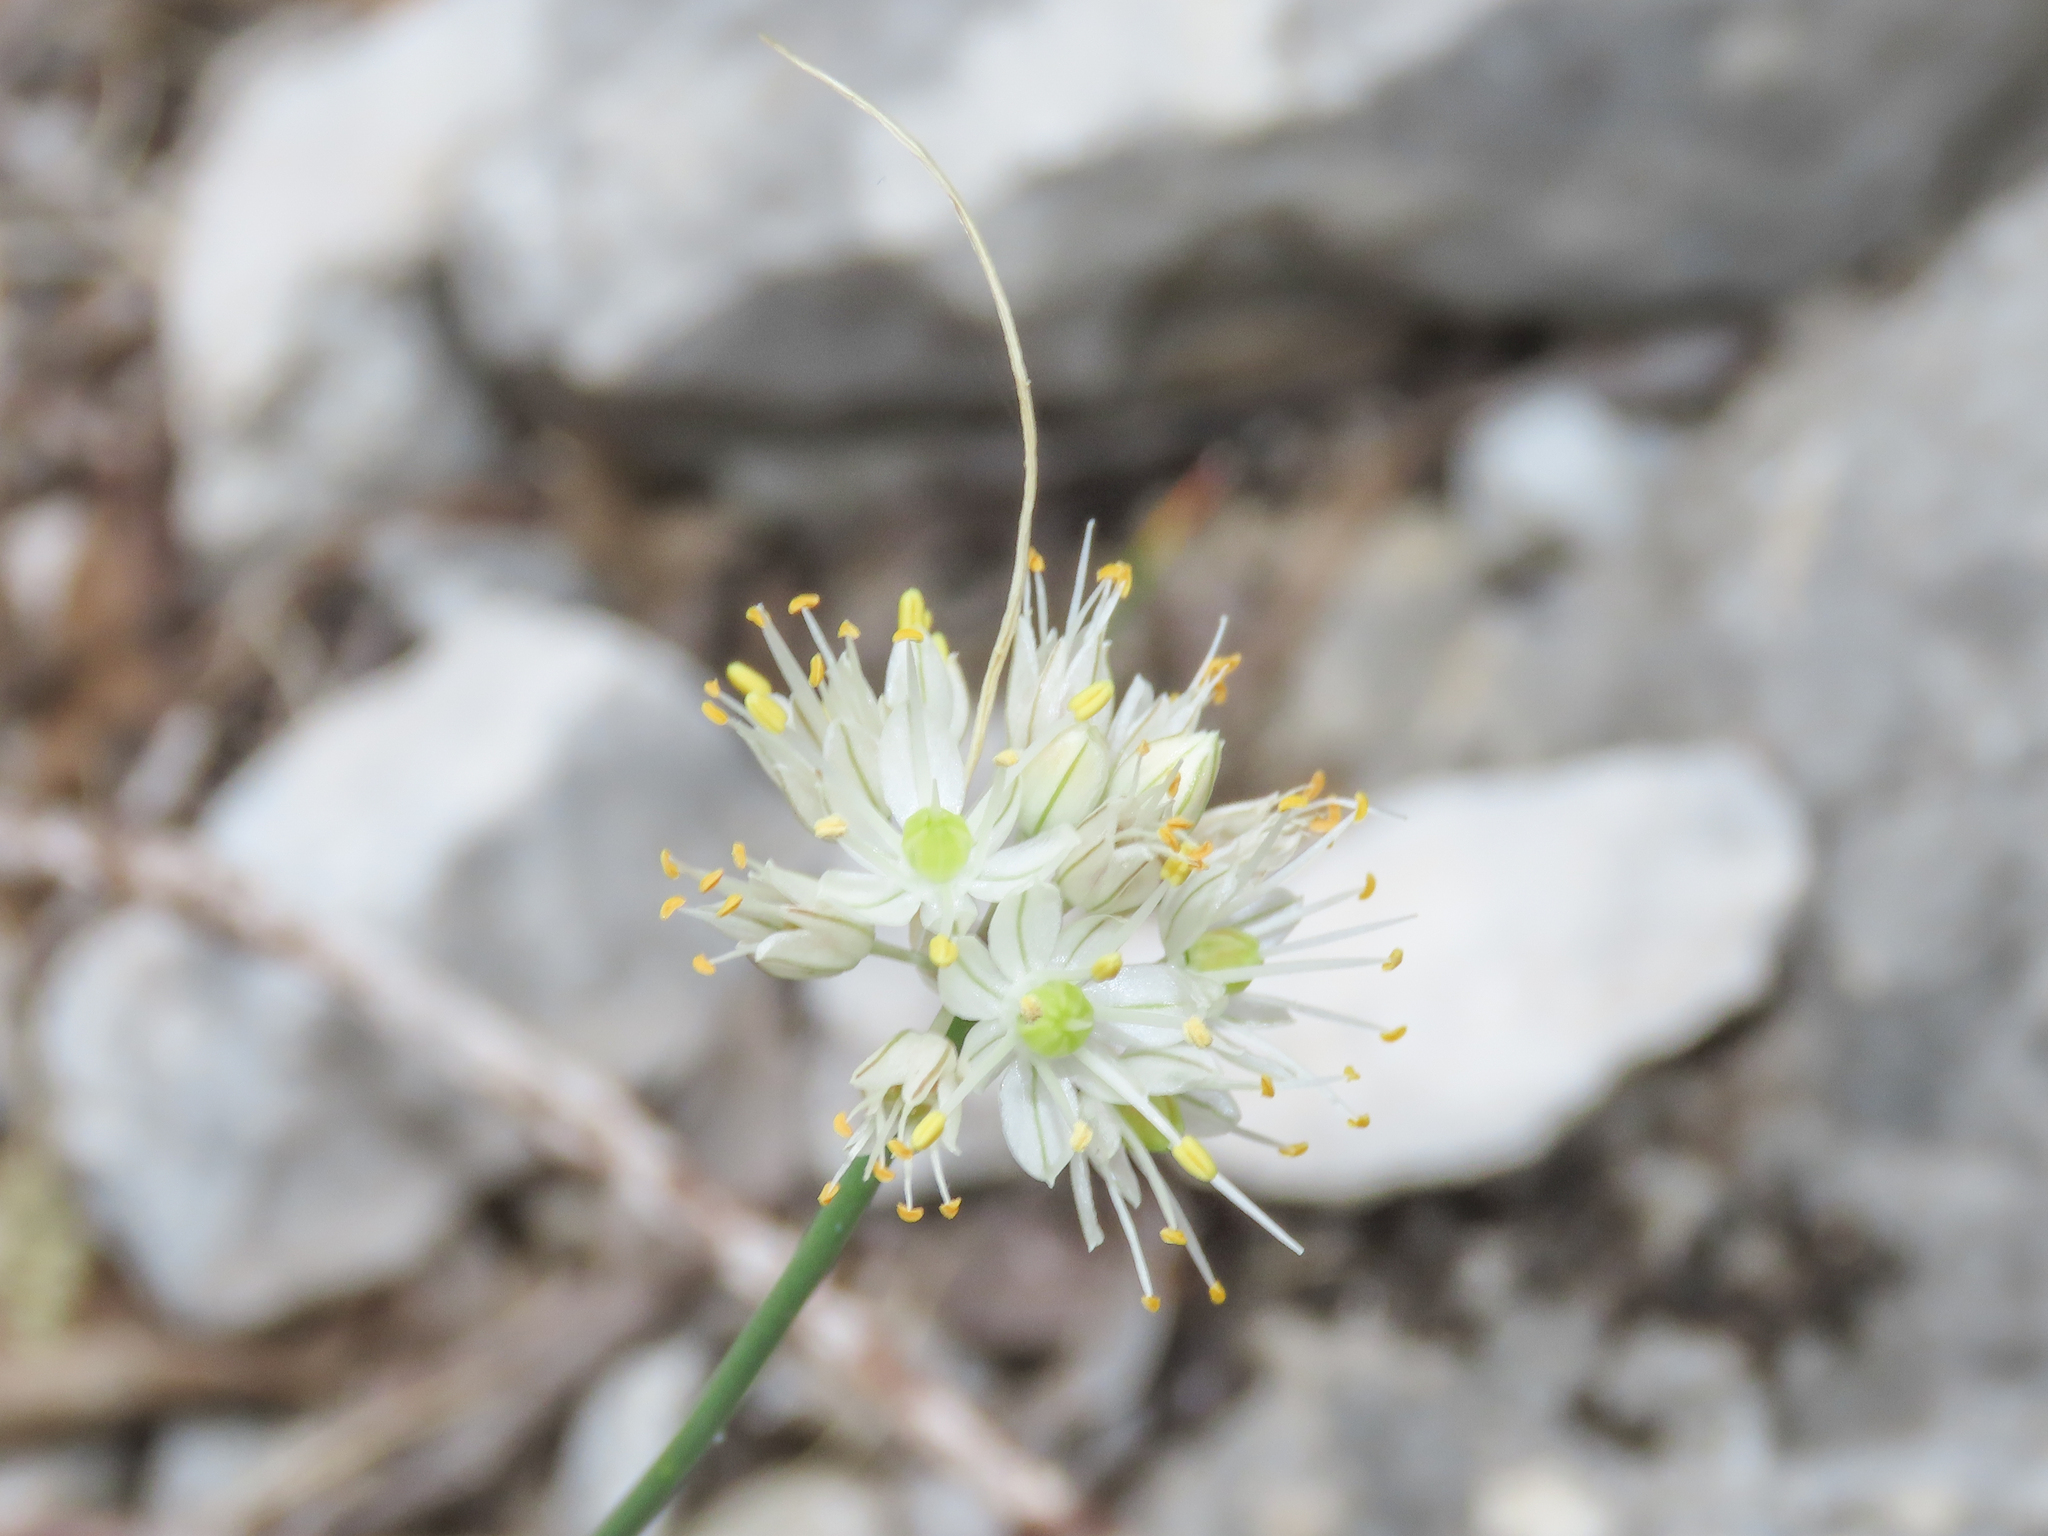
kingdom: Plantae
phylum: Tracheophyta
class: Liliopsida
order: Asparagales
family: Amaryllidaceae
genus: Allium
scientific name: Allium horvatii
